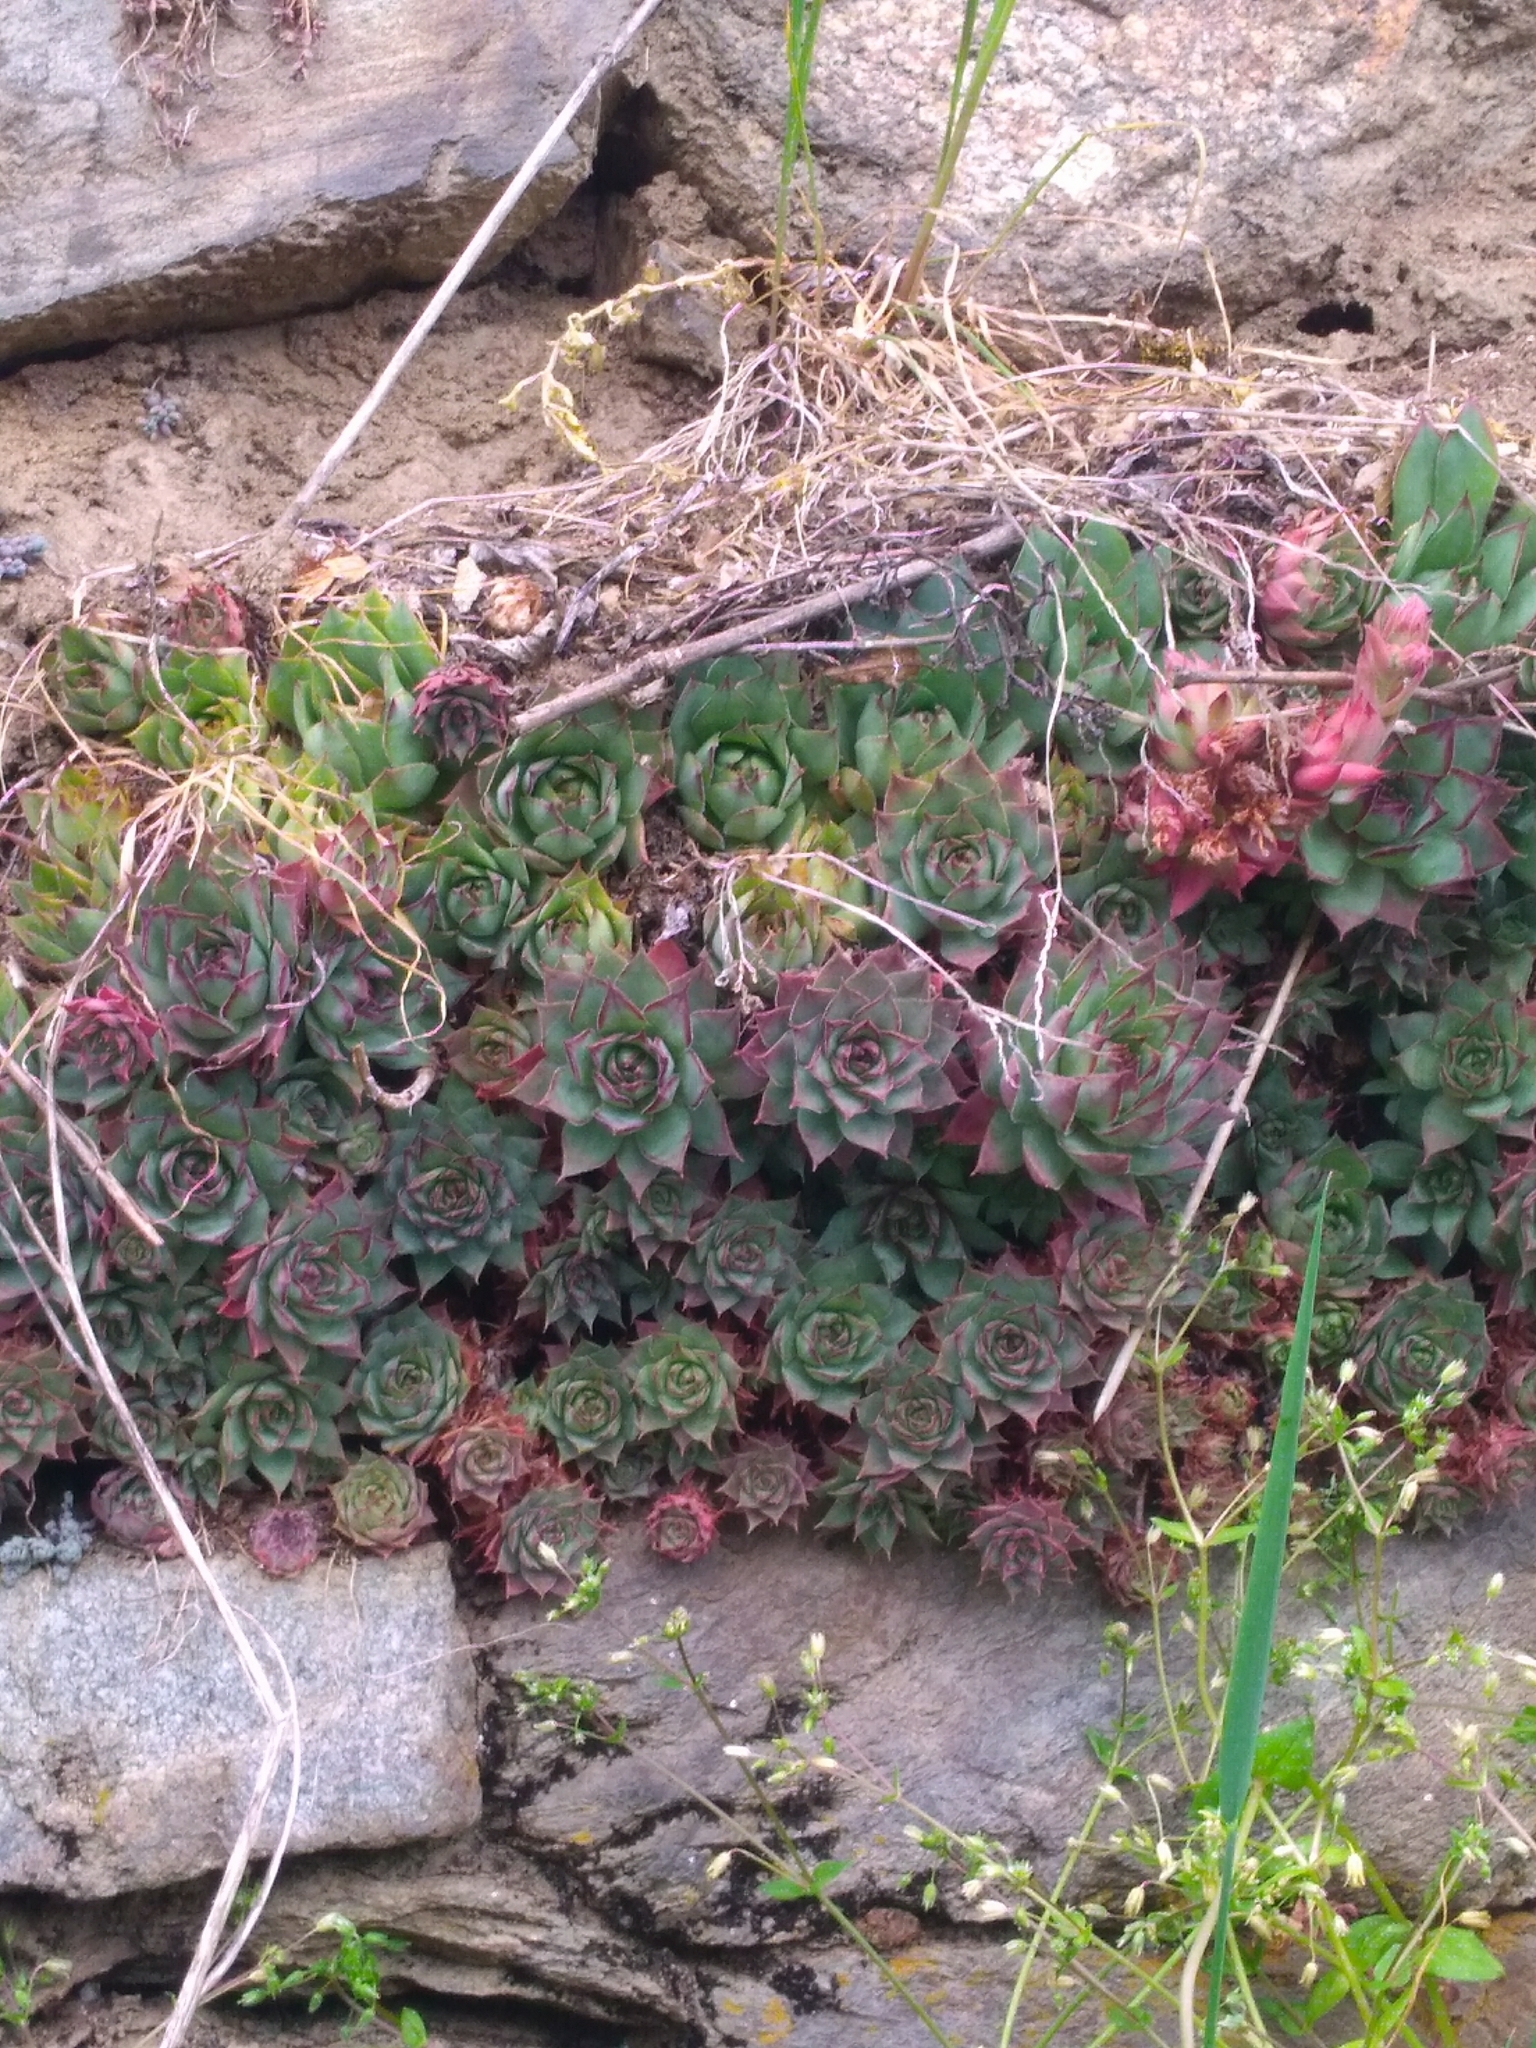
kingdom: Plantae
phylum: Tracheophyta
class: Magnoliopsida
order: Saxifragales
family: Crassulaceae
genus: Sempervivum
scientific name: Sempervivum tectorum
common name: House-leek
